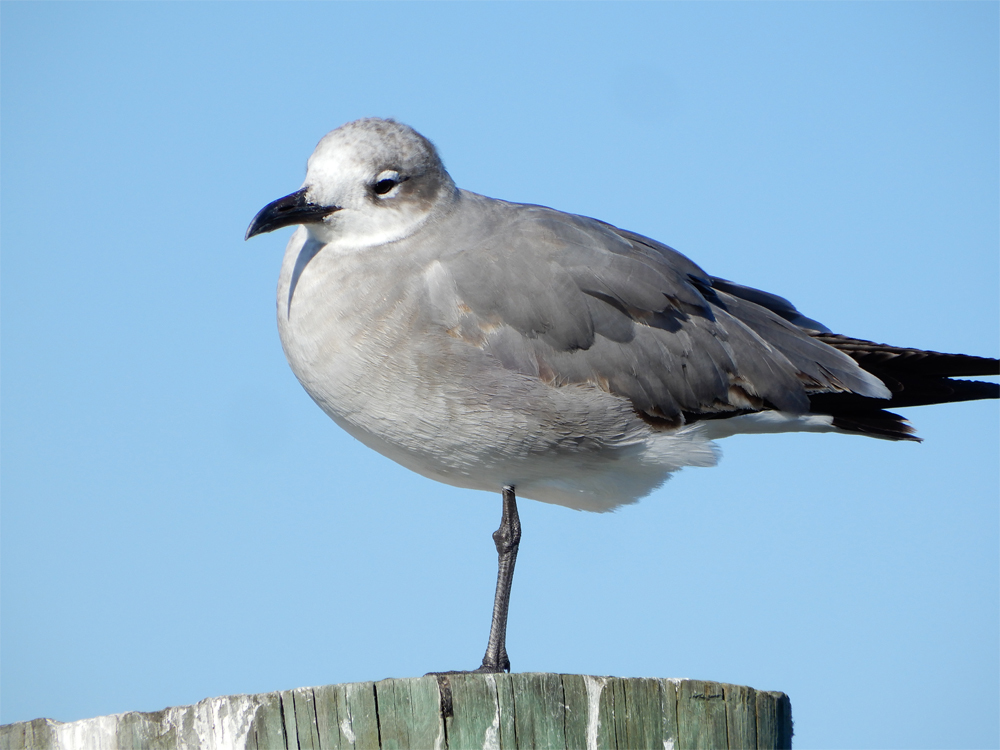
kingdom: Animalia
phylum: Chordata
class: Aves
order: Charadriiformes
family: Laridae
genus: Leucophaeus
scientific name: Leucophaeus atricilla
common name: Laughing gull
